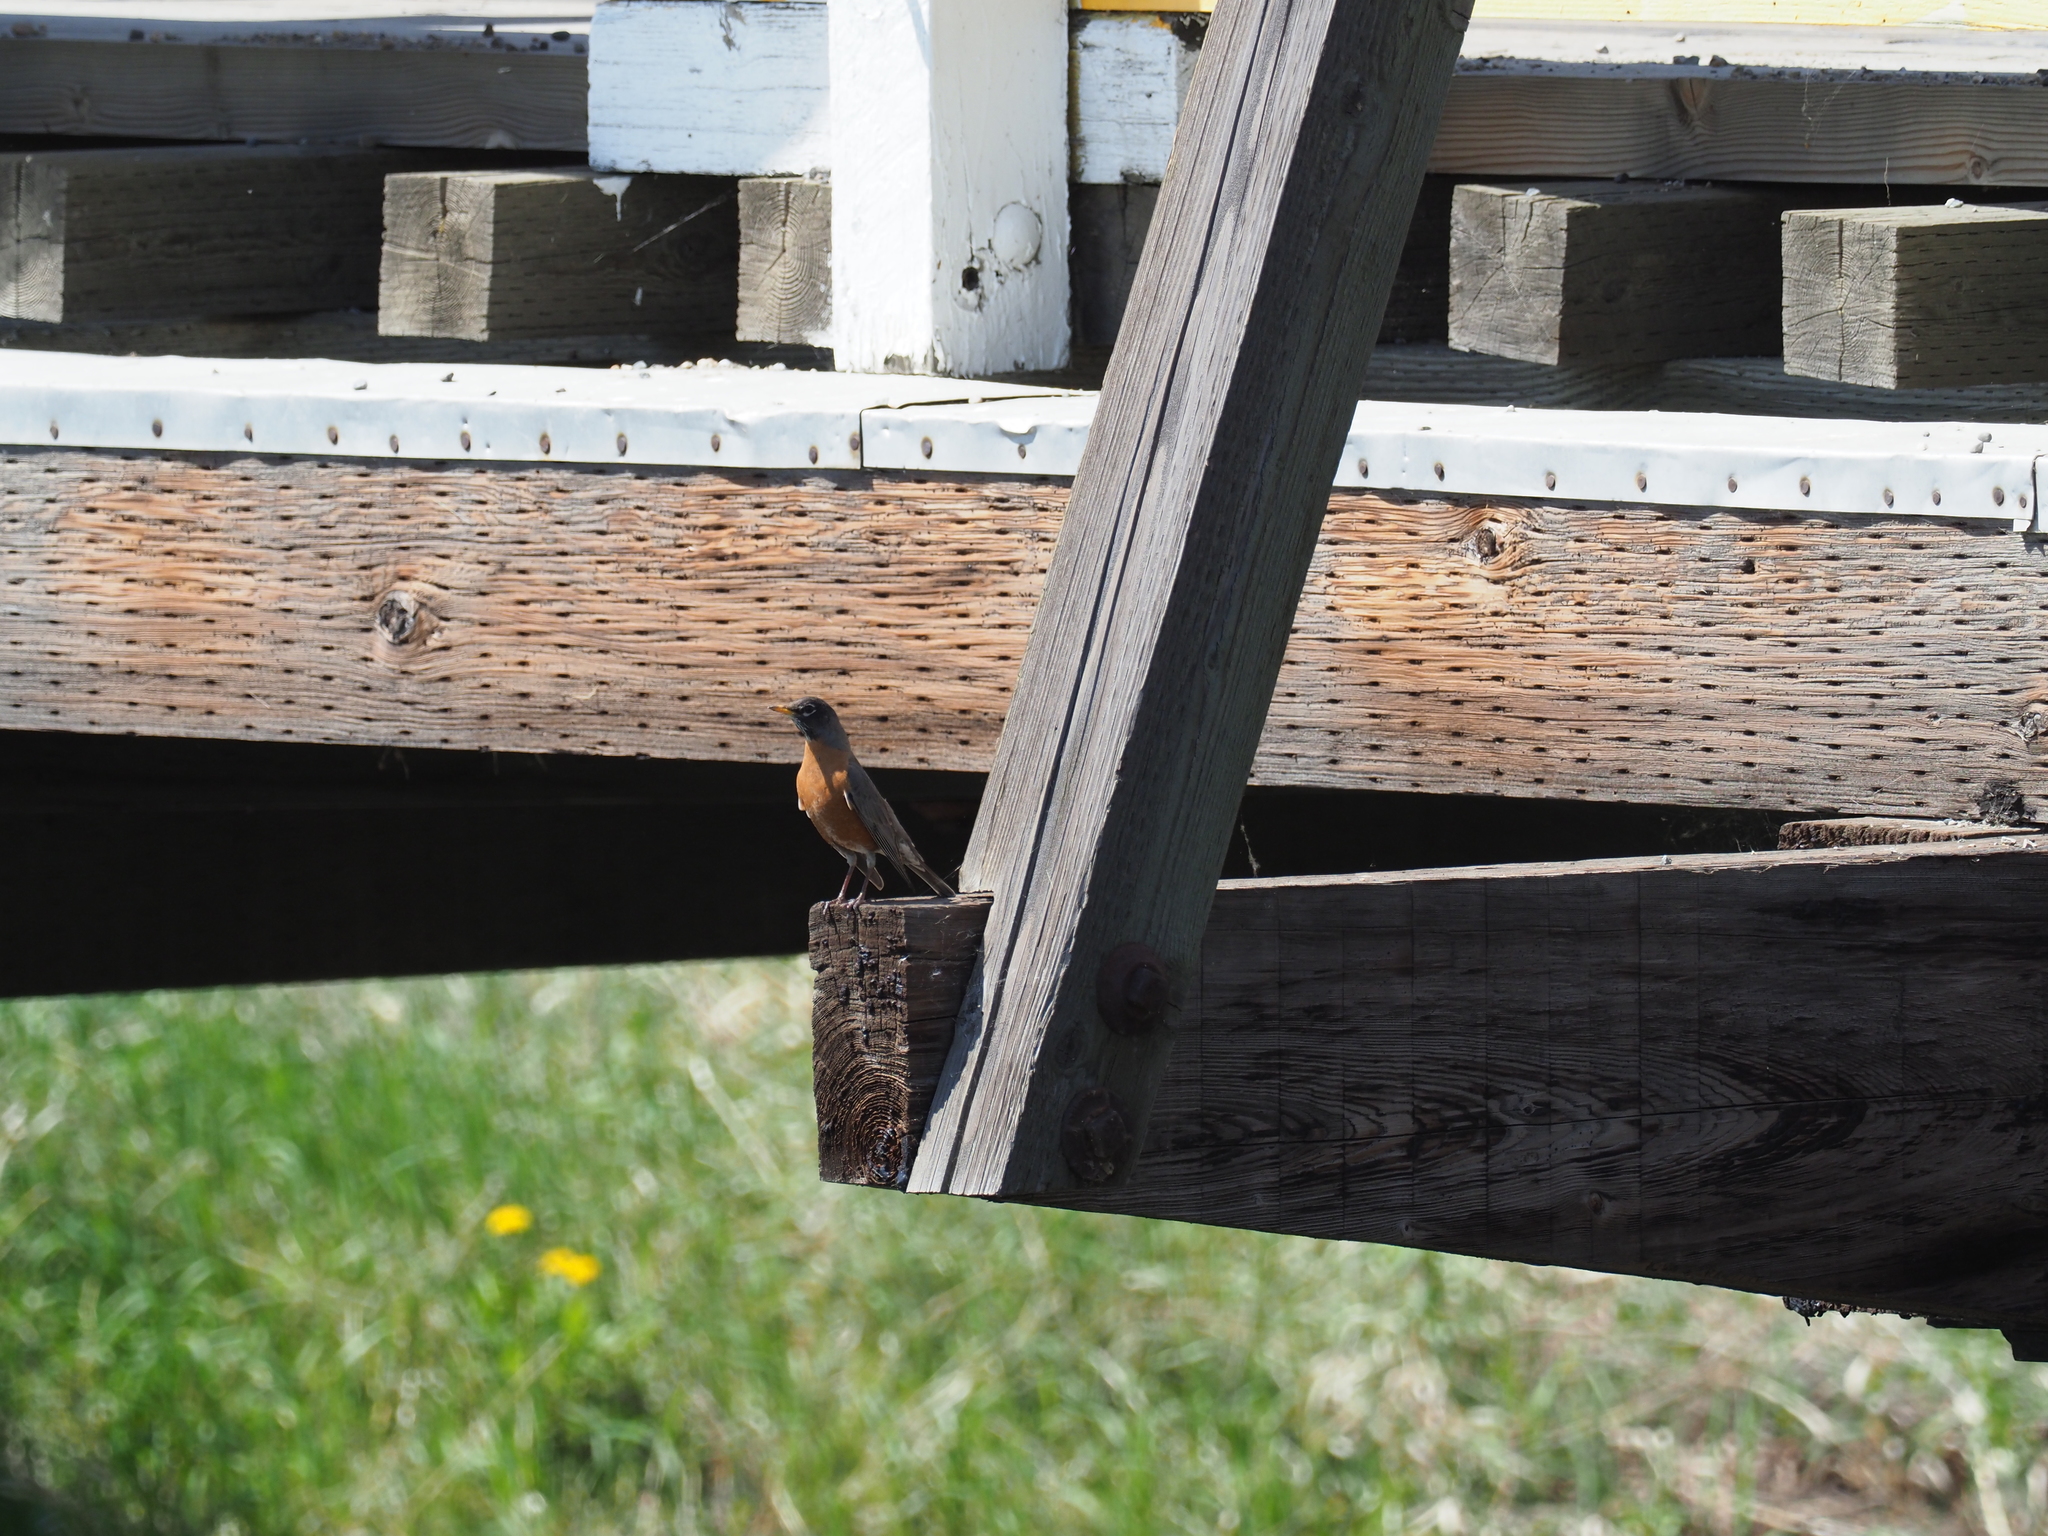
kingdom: Animalia
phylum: Chordata
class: Aves
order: Passeriformes
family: Turdidae
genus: Turdus
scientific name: Turdus migratorius
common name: American robin
